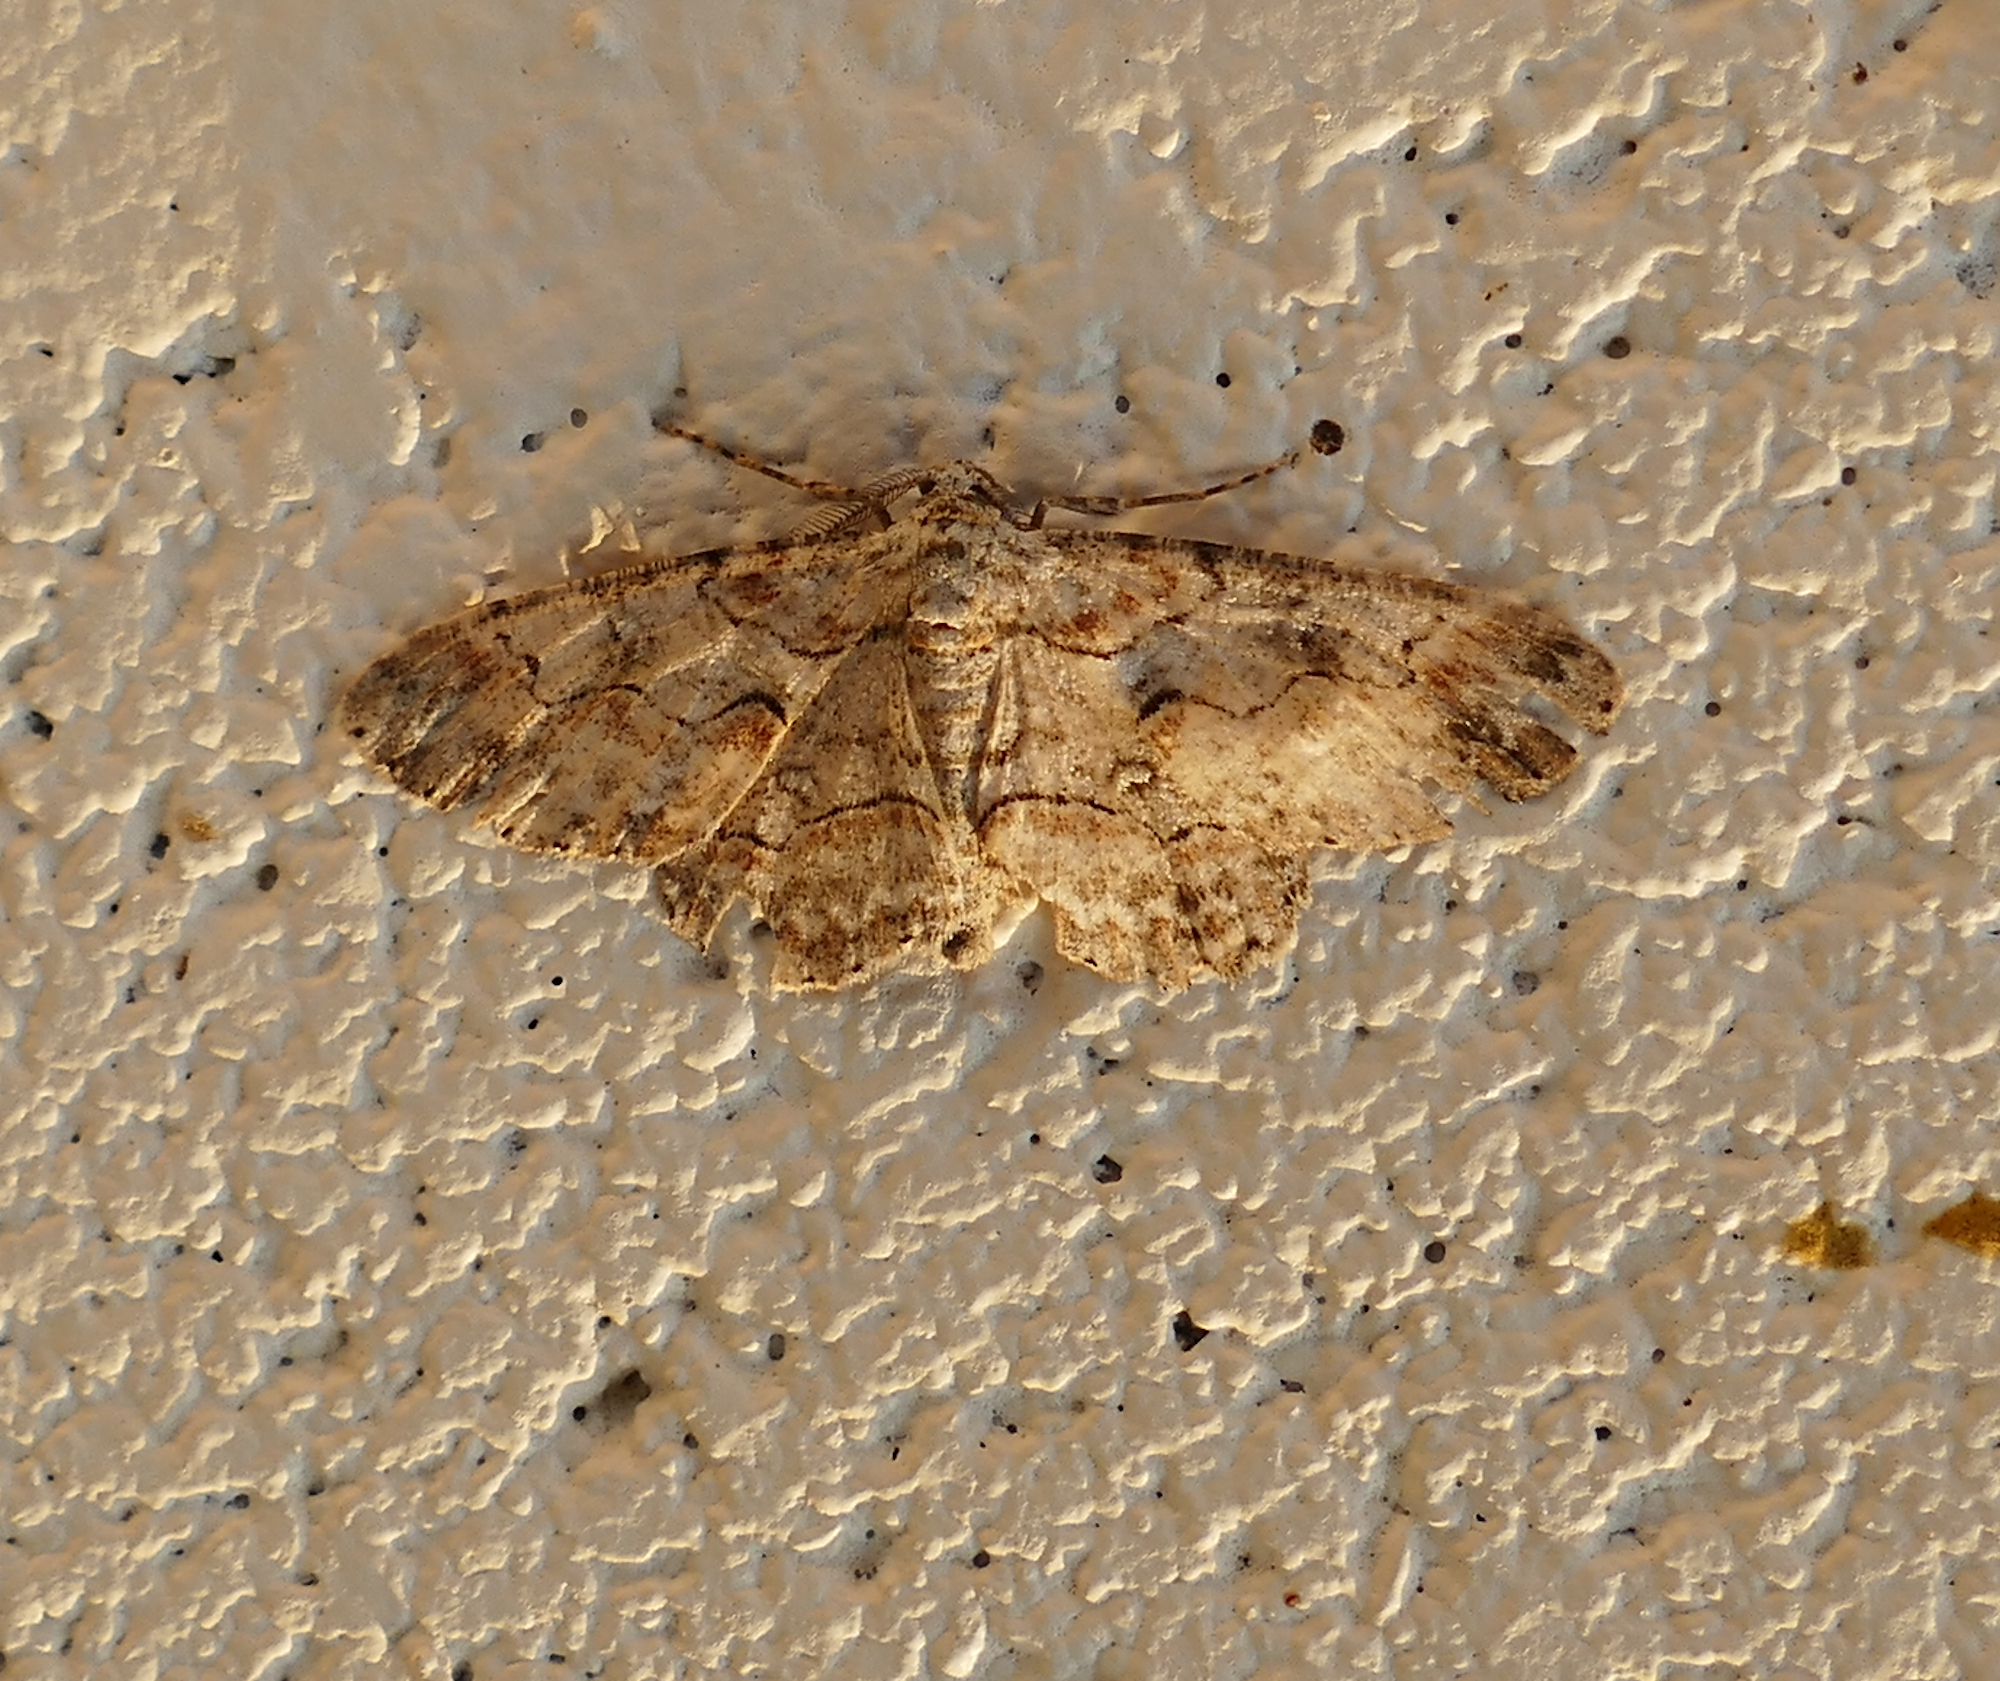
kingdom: Animalia
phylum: Arthropoda
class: Insecta
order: Lepidoptera
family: Geometridae
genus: Iridopsis
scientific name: Iridopsis defectaria
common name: Brown-shaded gray
